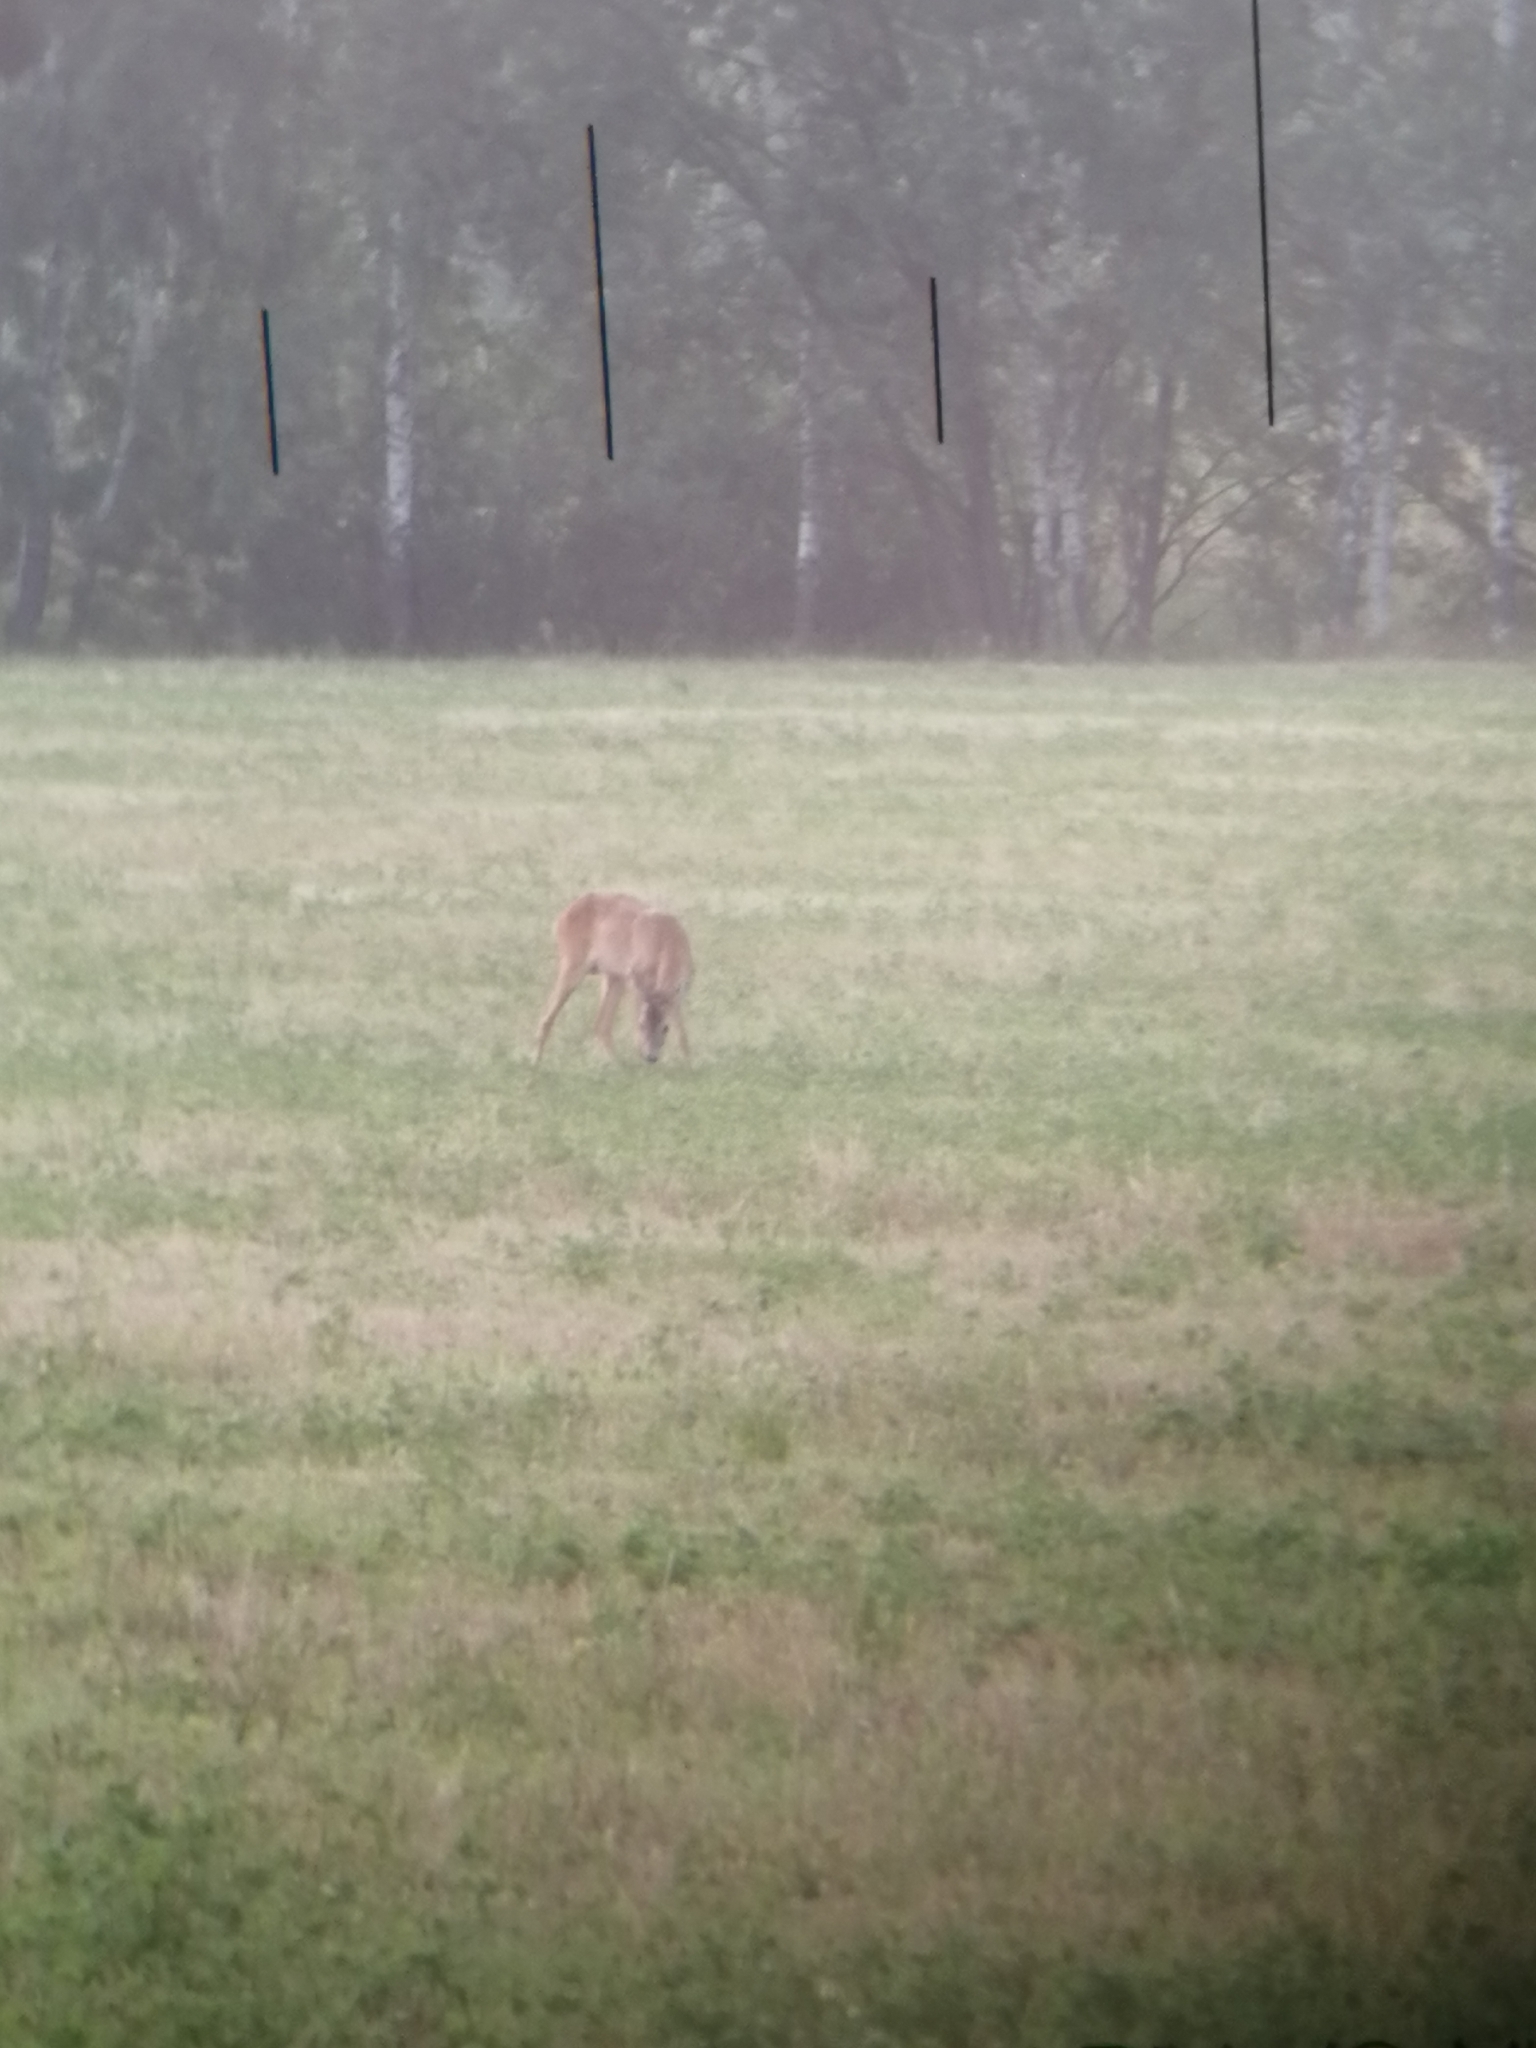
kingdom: Animalia
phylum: Chordata
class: Mammalia
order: Artiodactyla
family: Cervidae
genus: Capreolus
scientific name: Capreolus capreolus
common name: Western roe deer
